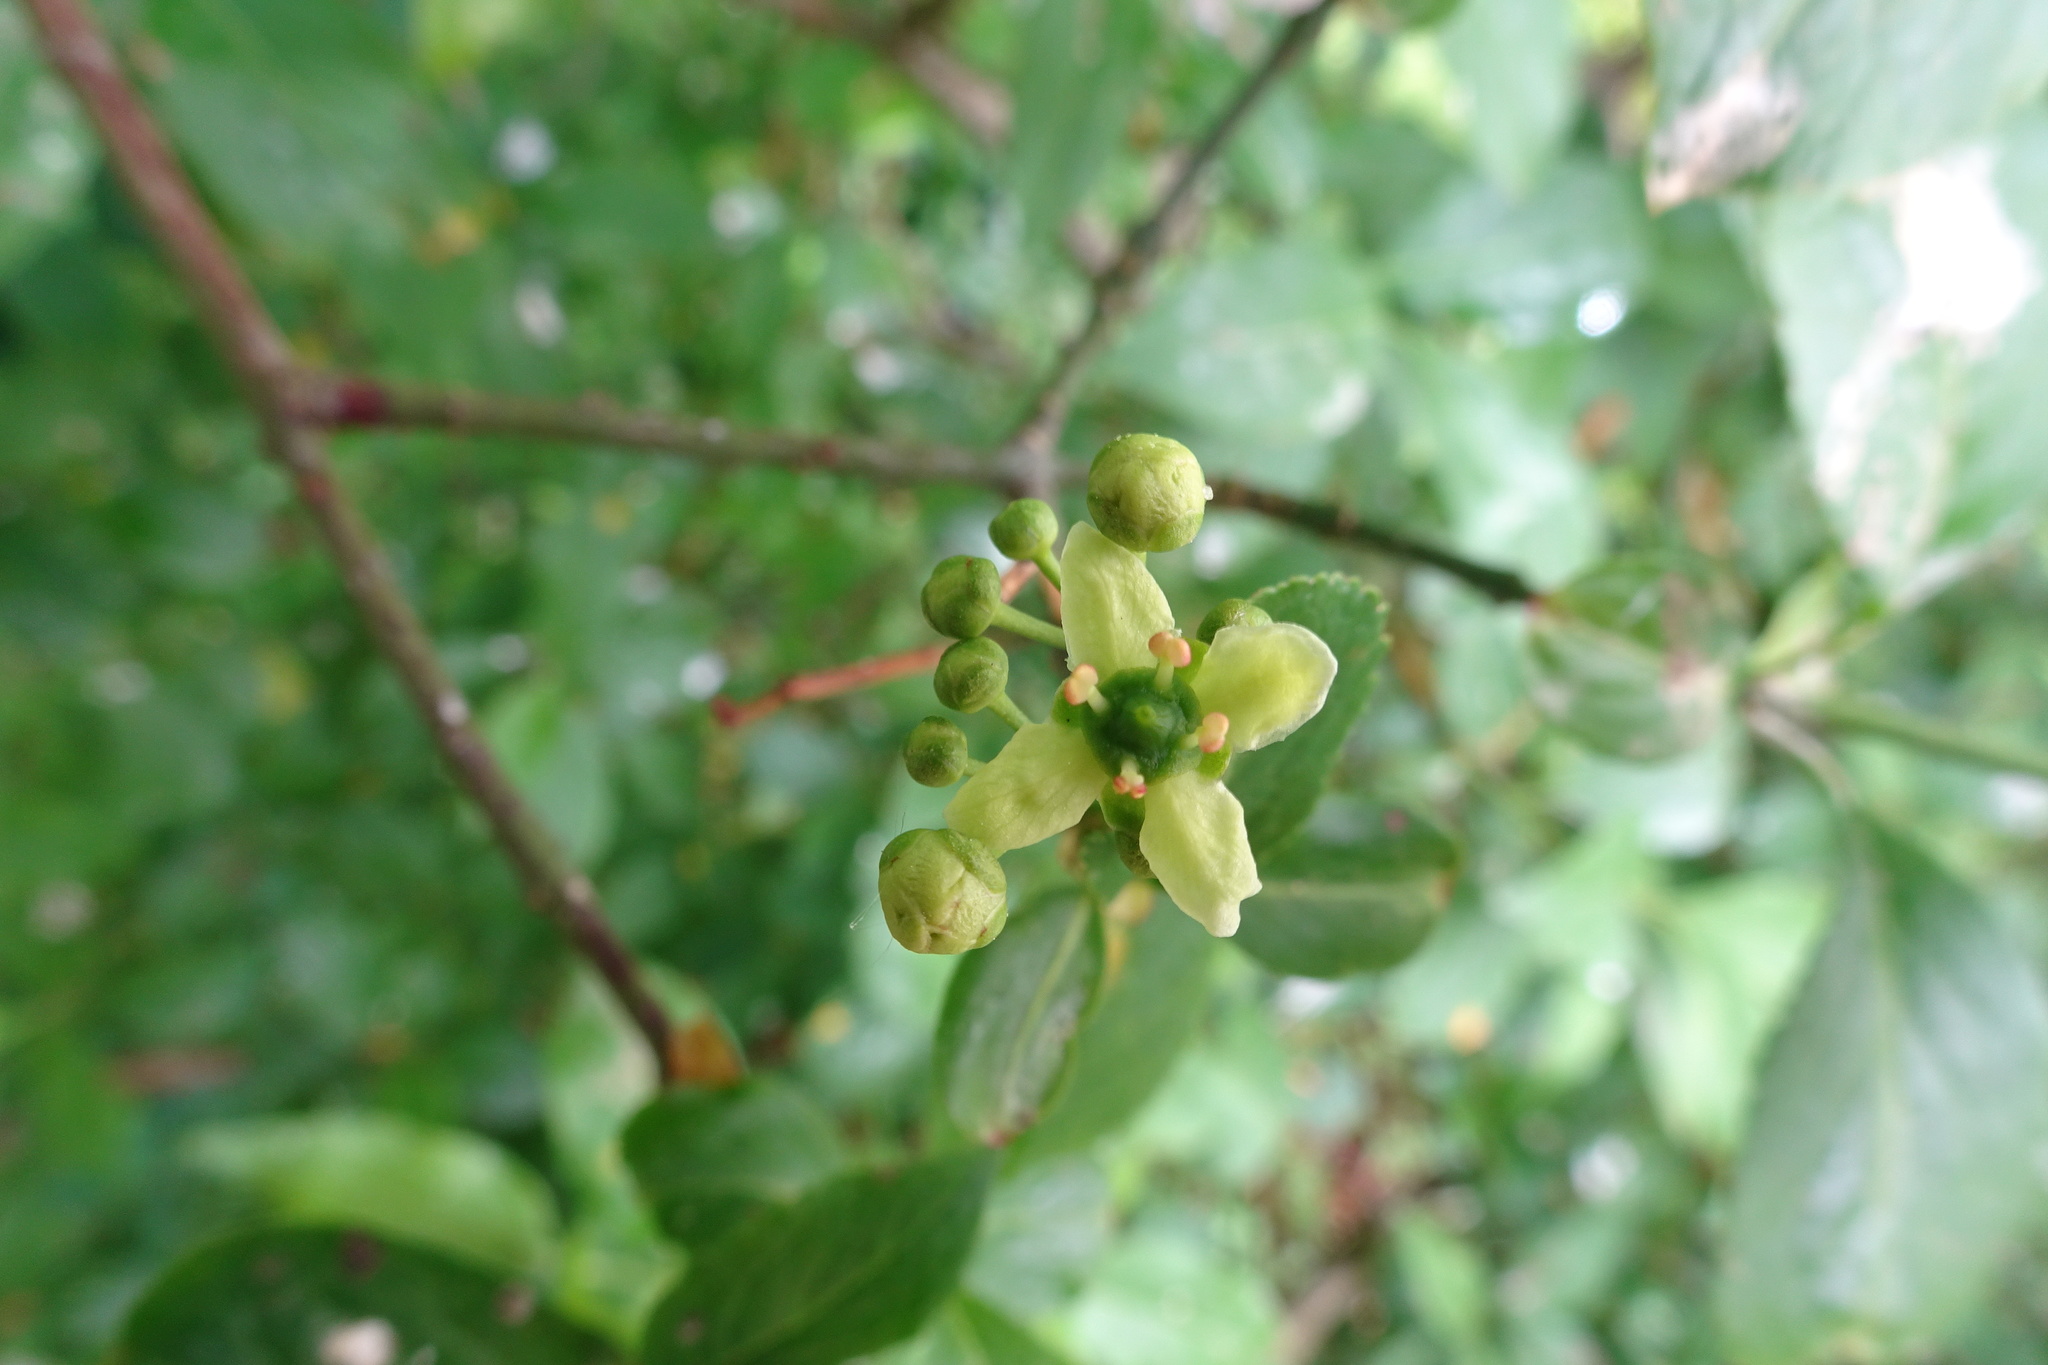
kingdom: Plantae
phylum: Tracheophyta
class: Magnoliopsida
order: Celastrales
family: Celastraceae
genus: Euonymus
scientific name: Euonymus europaeus
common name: Spindle
